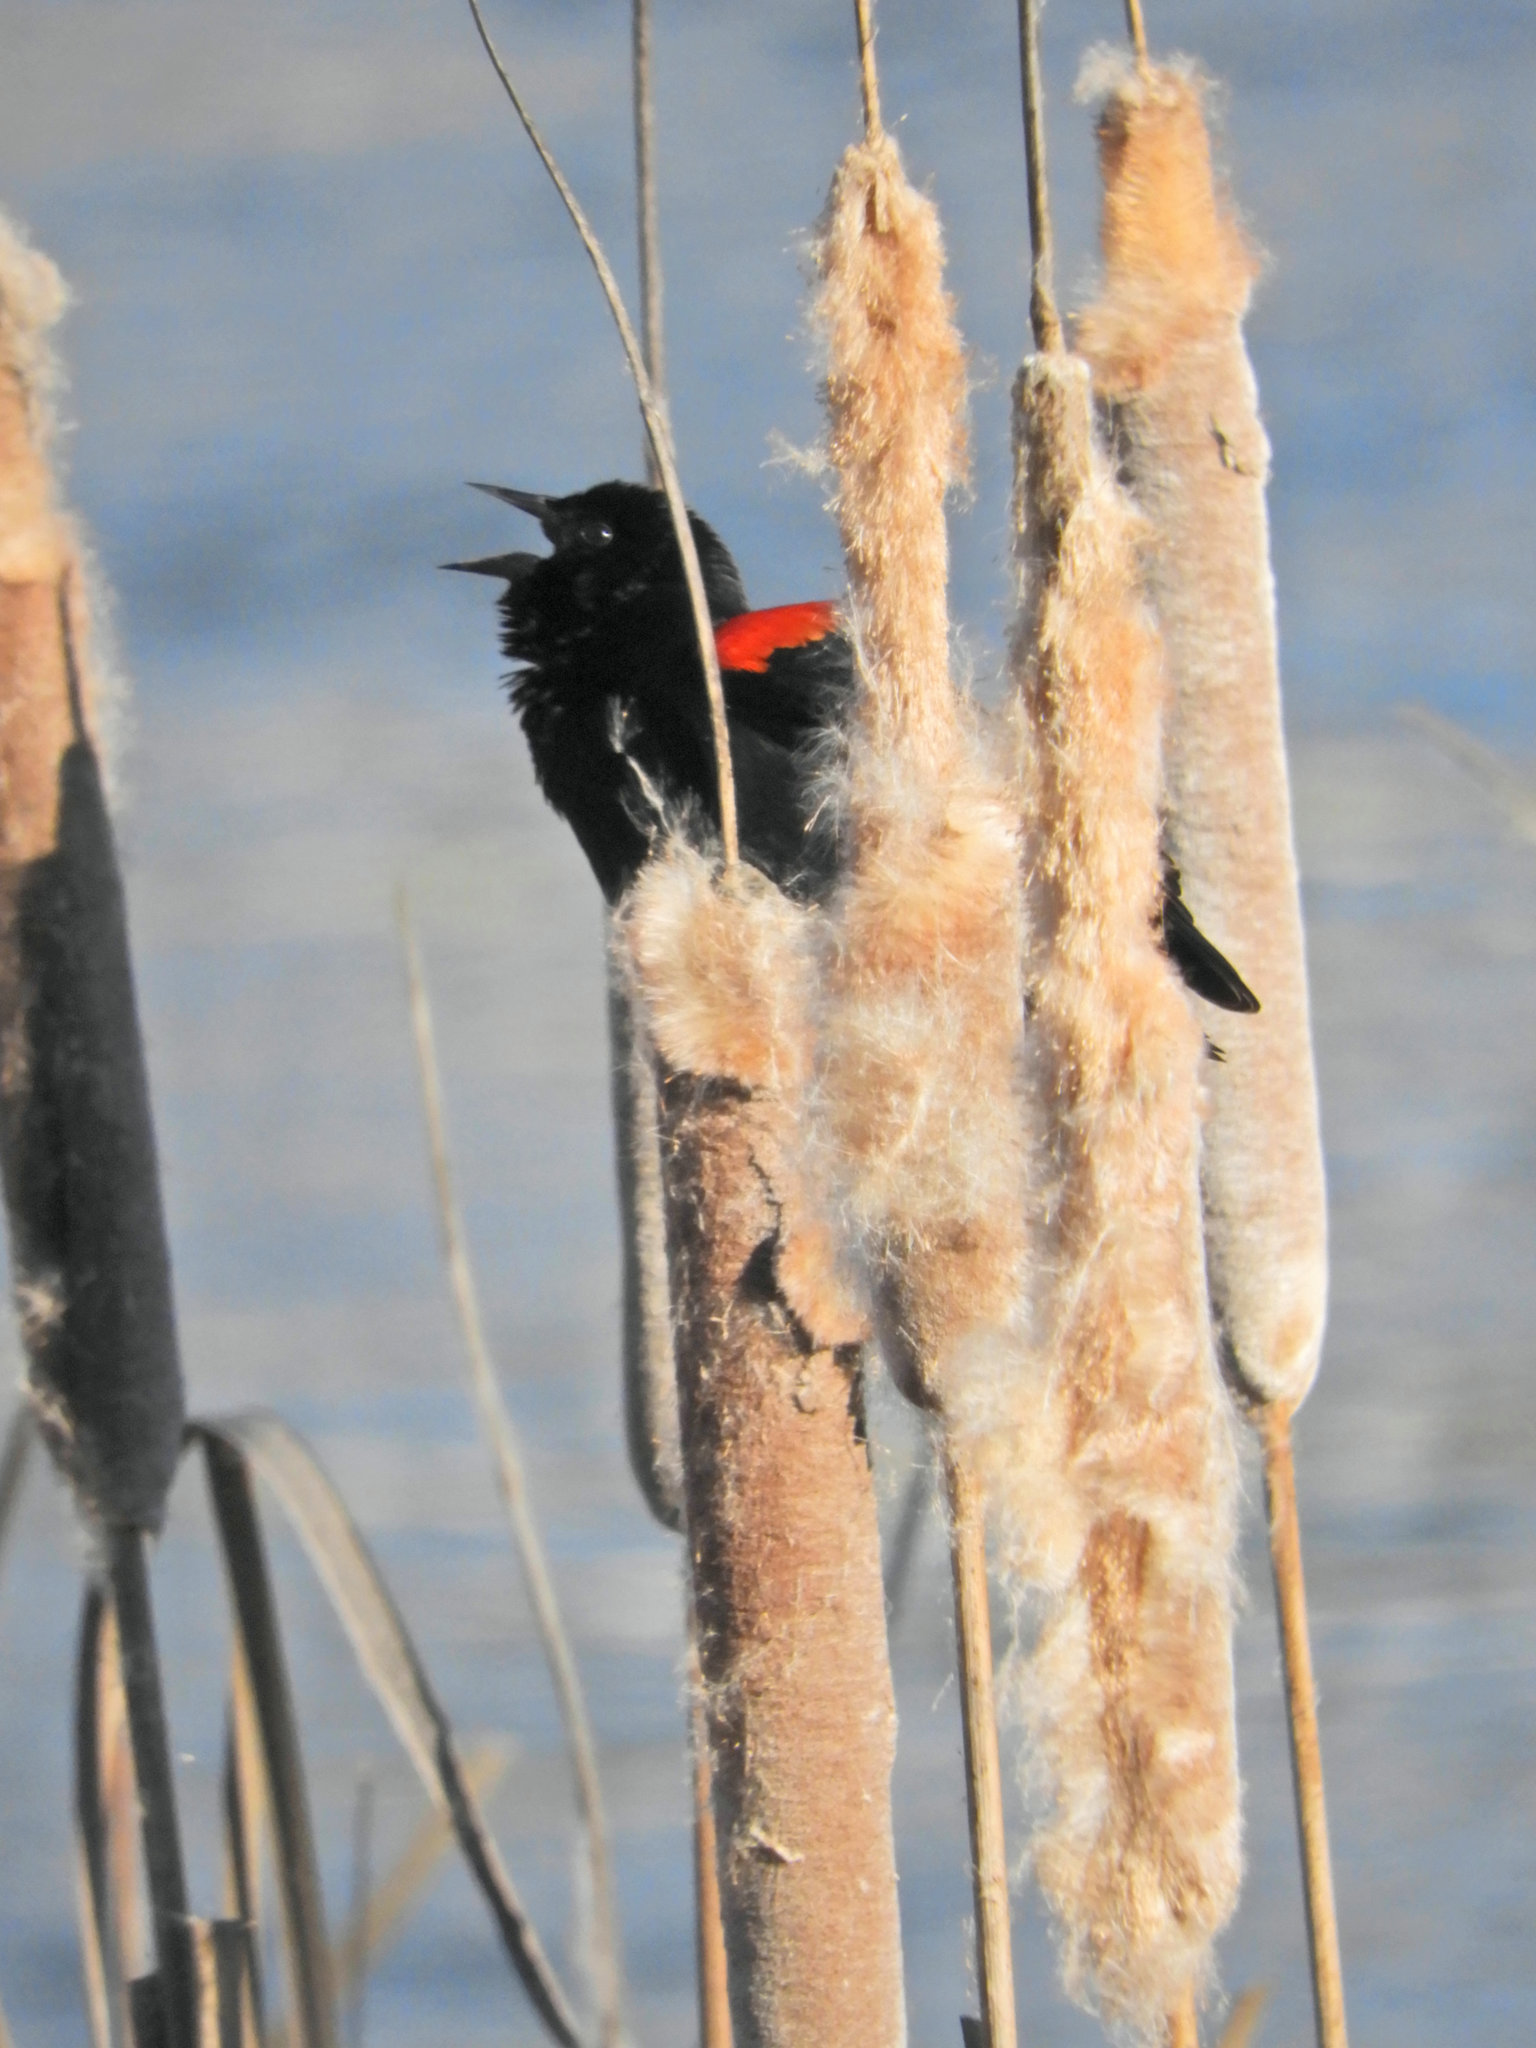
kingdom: Animalia
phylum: Chordata
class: Aves
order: Passeriformes
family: Icteridae
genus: Agelaius
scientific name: Agelaius phoeniceus
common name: Red-winged blackbird
